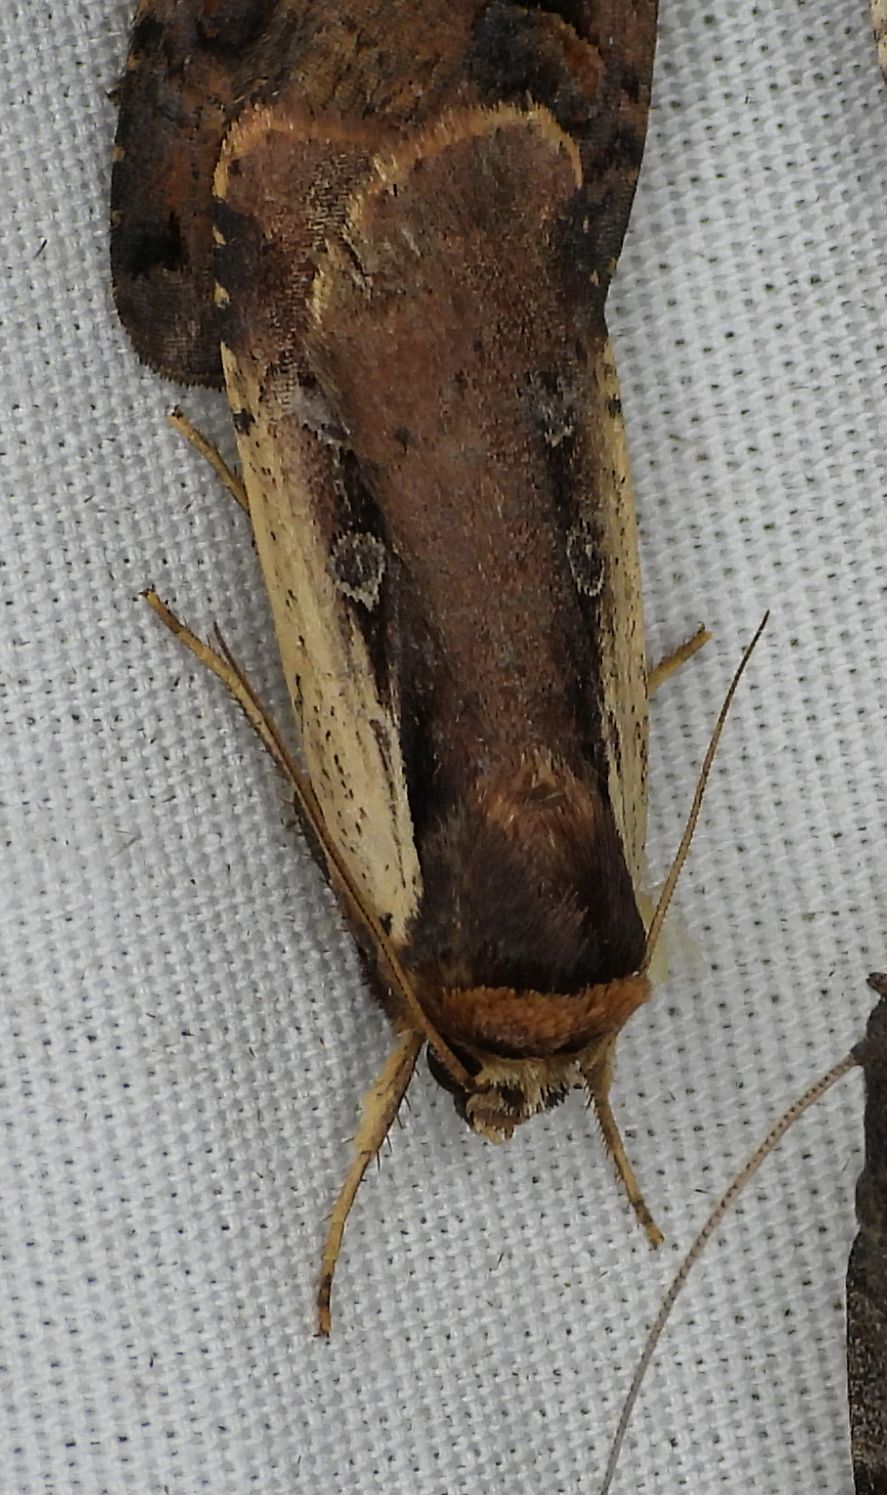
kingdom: Animalia
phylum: Arthropoda
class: Insecta
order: Lepidoptera
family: Noctuidae
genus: Ochropleura
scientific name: Ochropleura implecta
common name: Flame-shouldered dart
